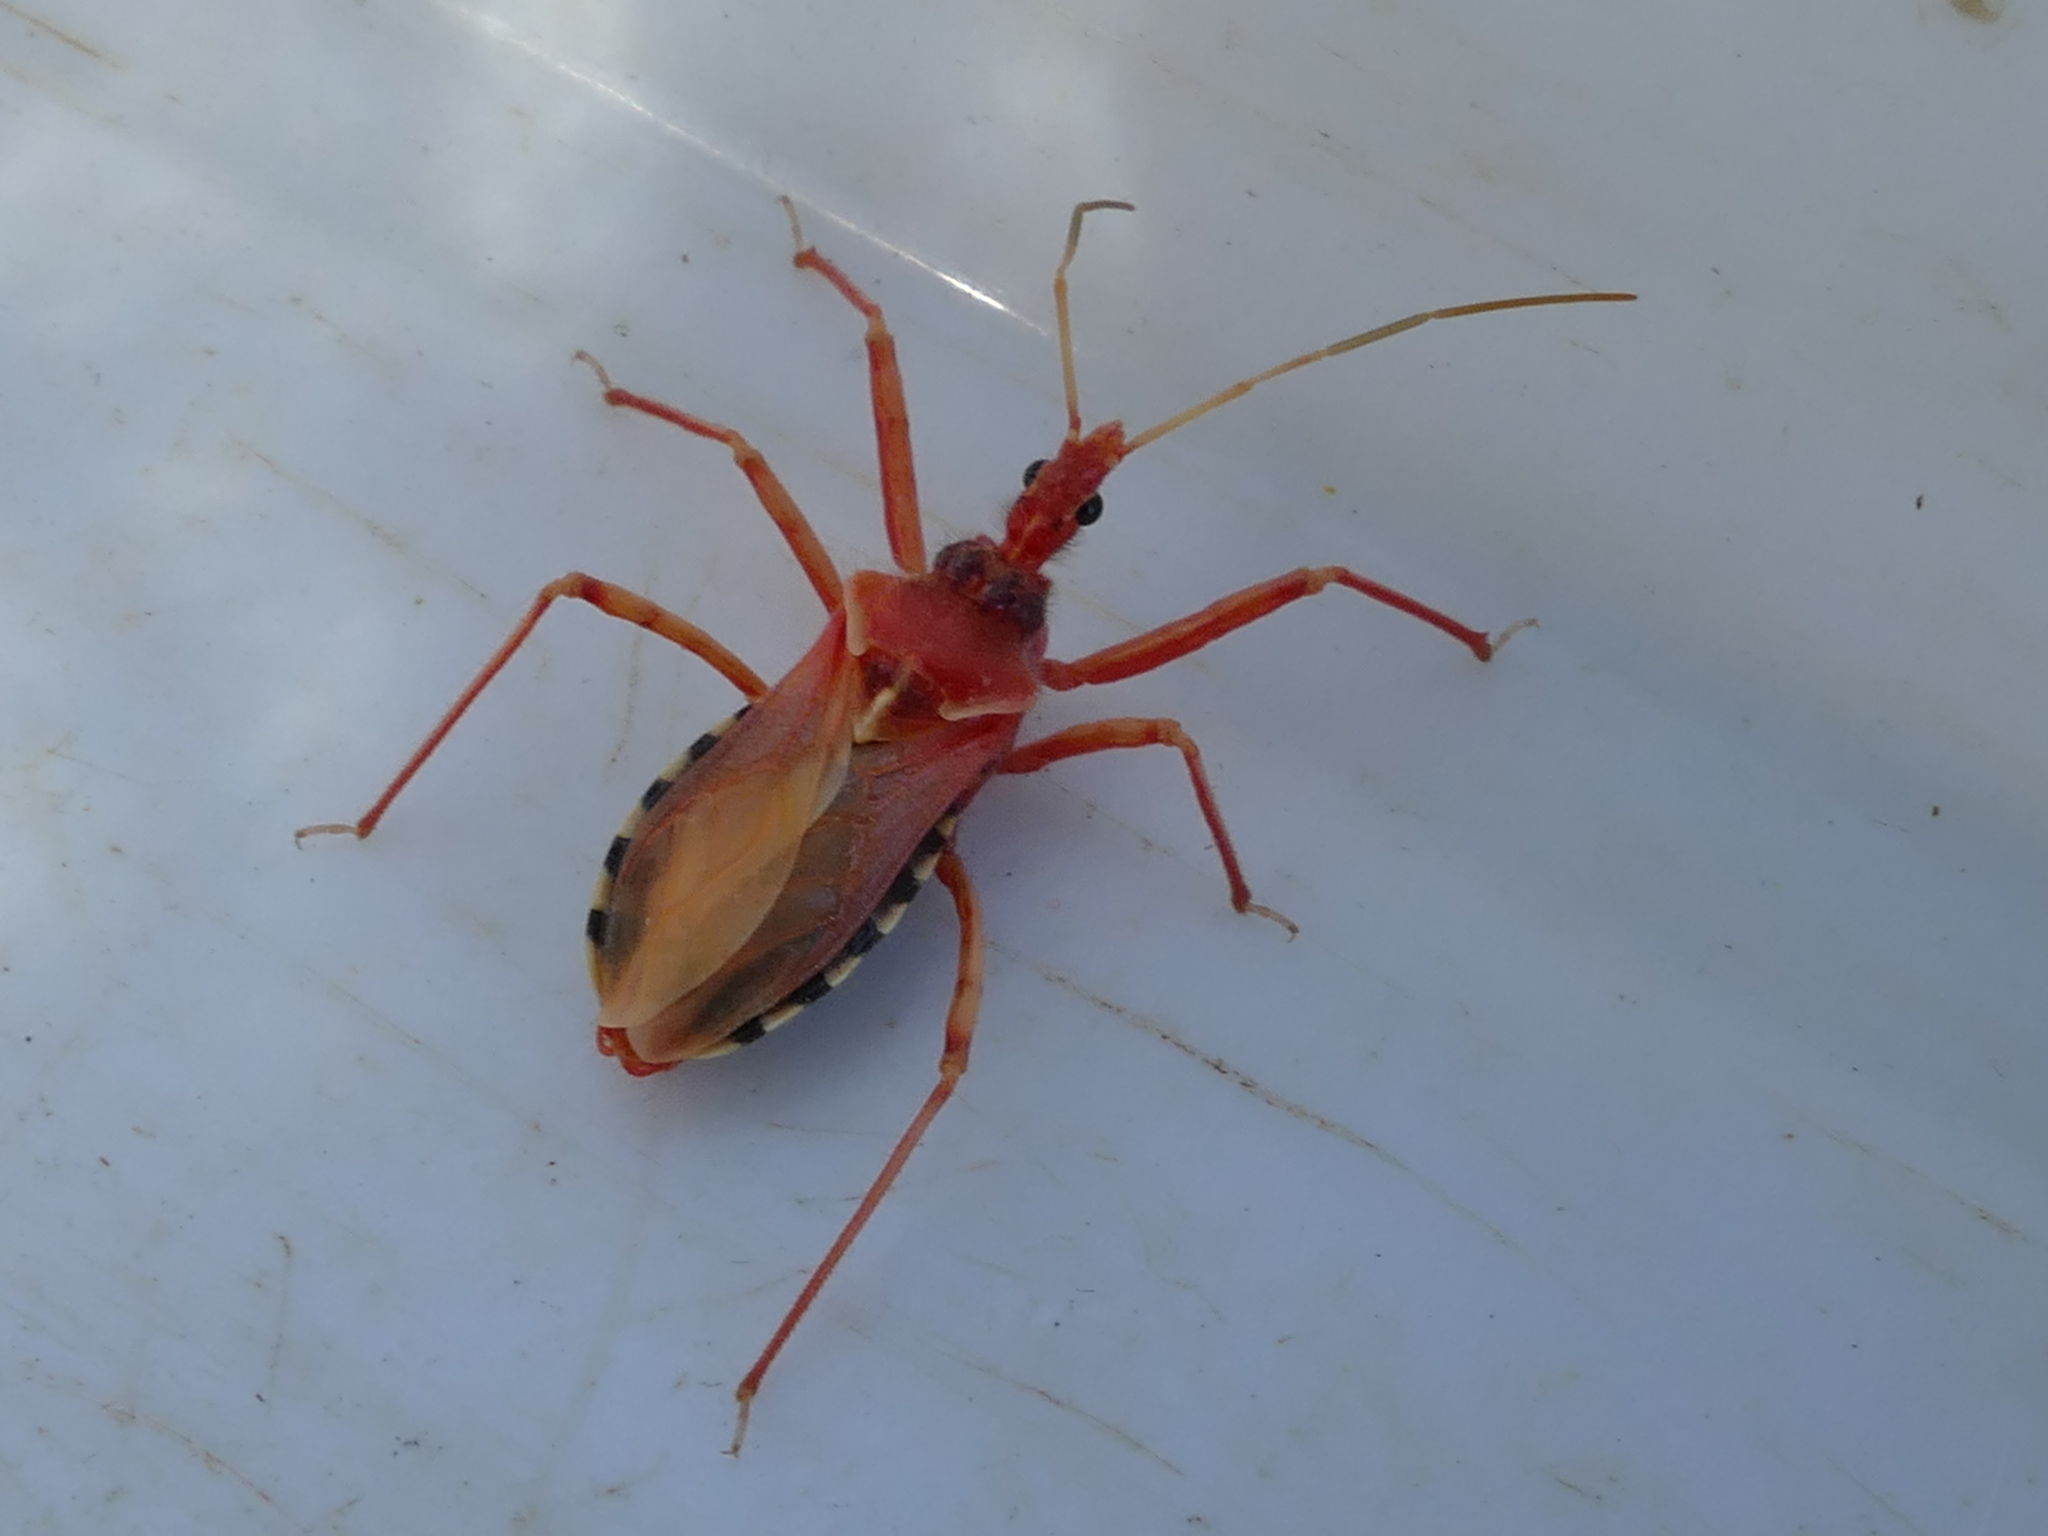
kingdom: Animalia
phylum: Arthropoda
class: Insecta
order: Hemiptera
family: Reduviidae
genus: Rhynocoris
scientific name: Rhynocoris erythropus
